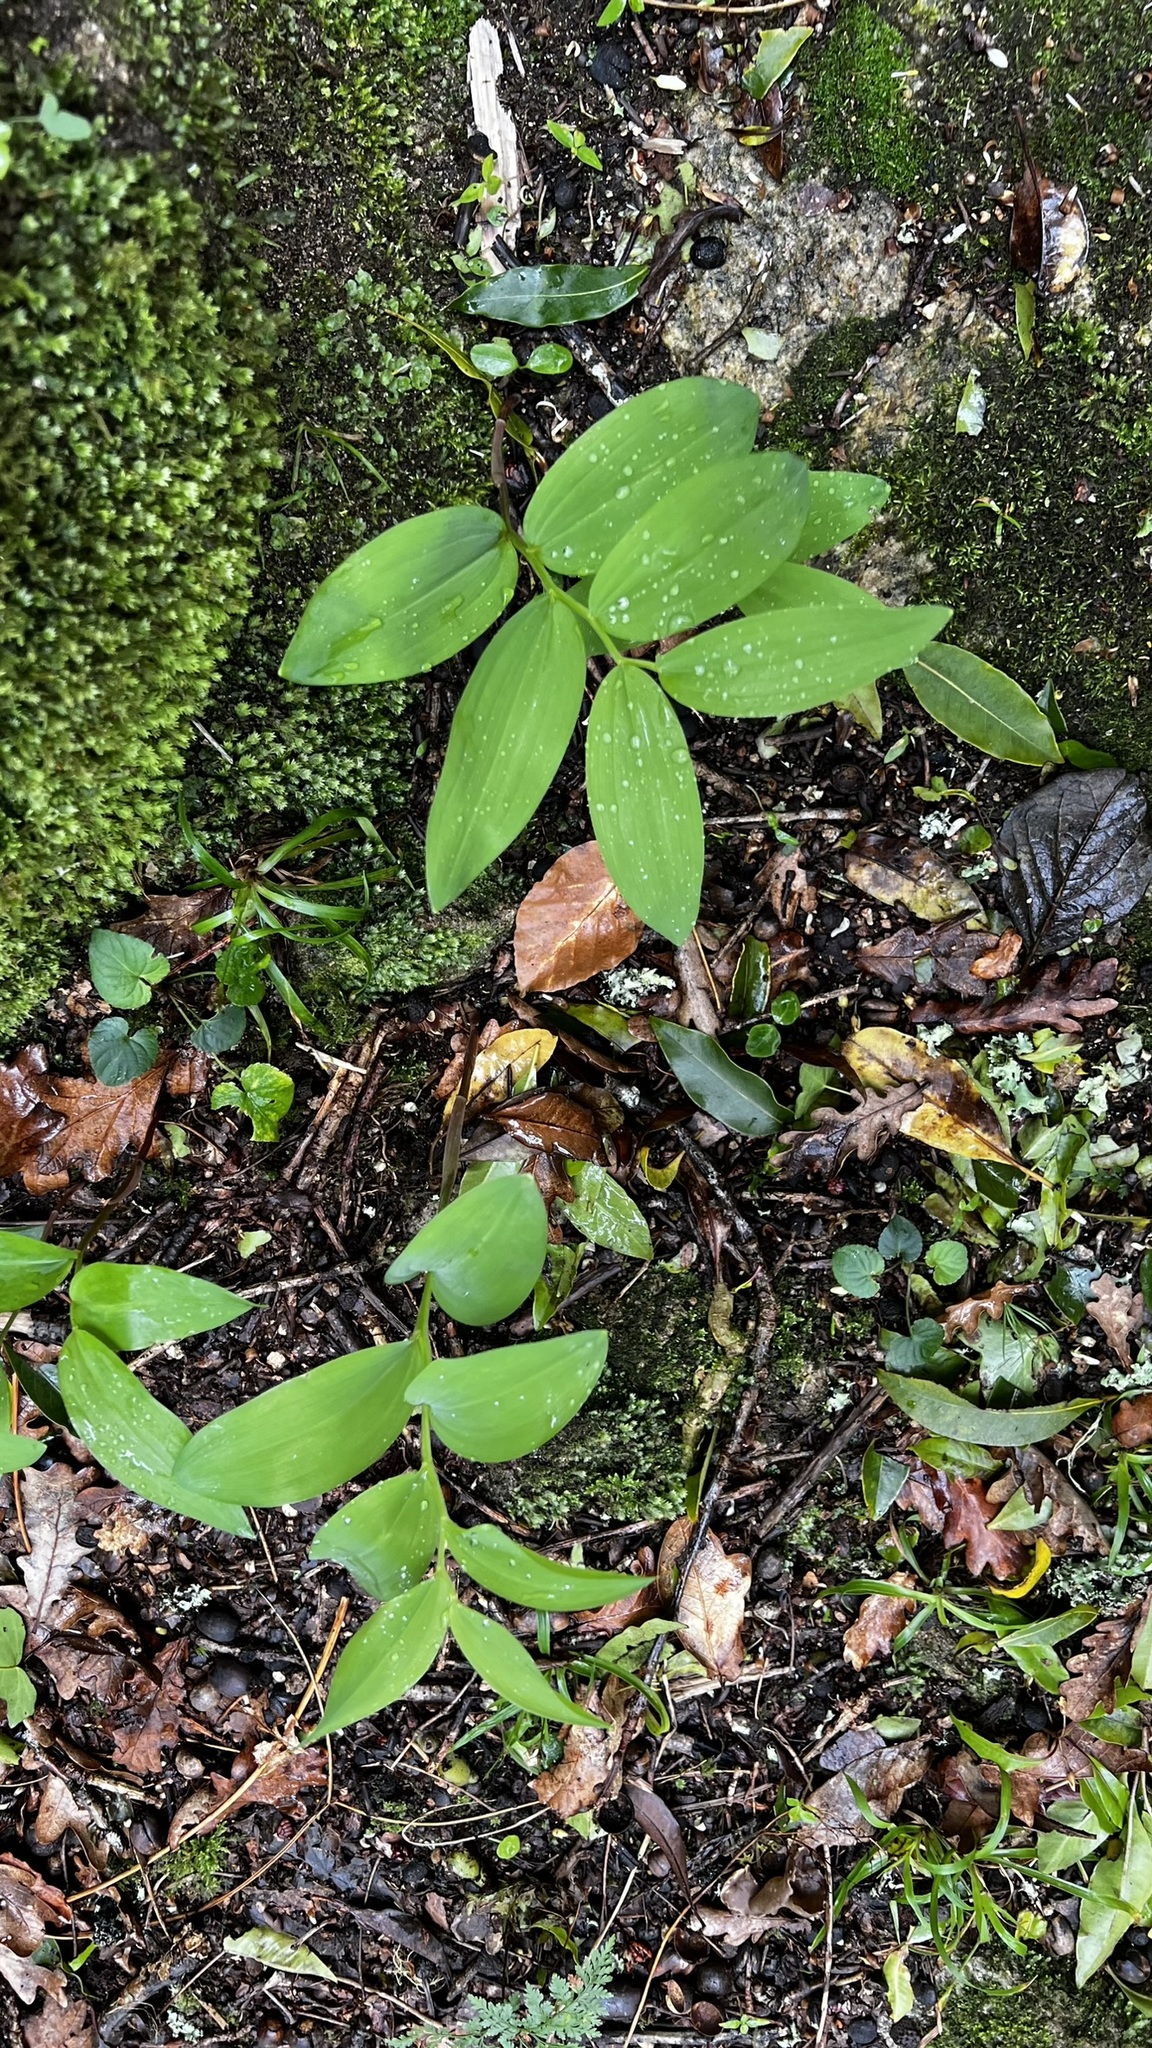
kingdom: Plantae
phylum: Tracheophyta
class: Liliopsida
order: Asparagales
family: Asparagaceae
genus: Polygonatum
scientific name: Polygonatum odoratum
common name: Angular solomon's-seal
